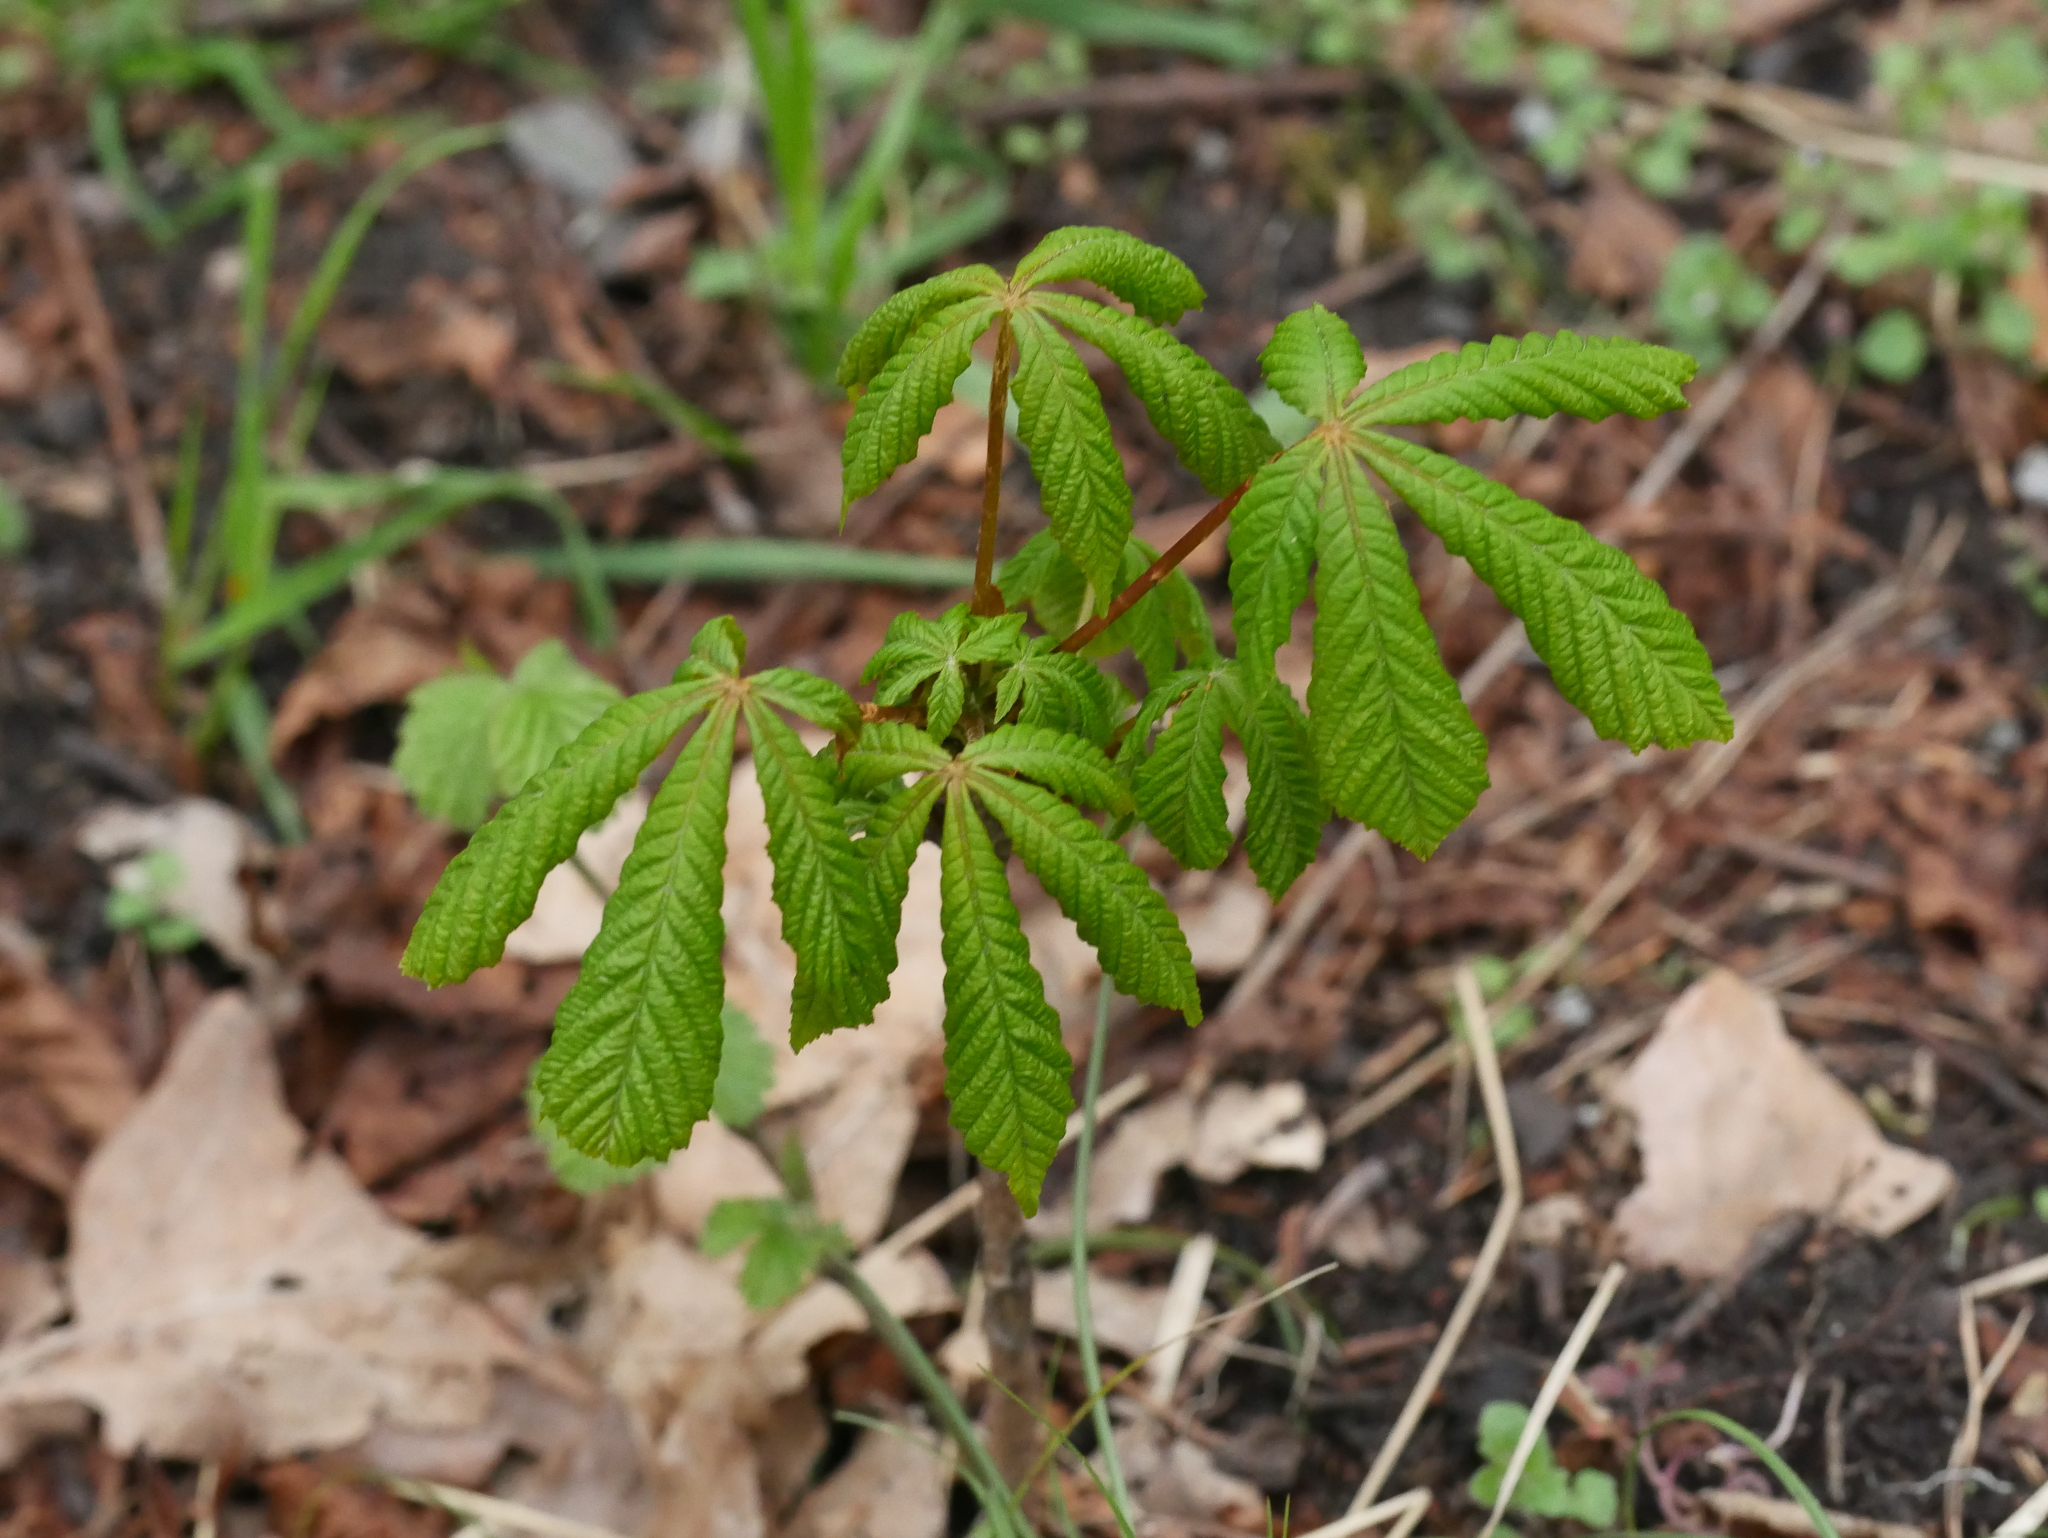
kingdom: Plantae
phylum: Tracheophyta
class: Magnoliopsida
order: Sapindales
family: Sapindaceae
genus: Aesculus
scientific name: Aesculus hippocastanum
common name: Horse-chestnut
